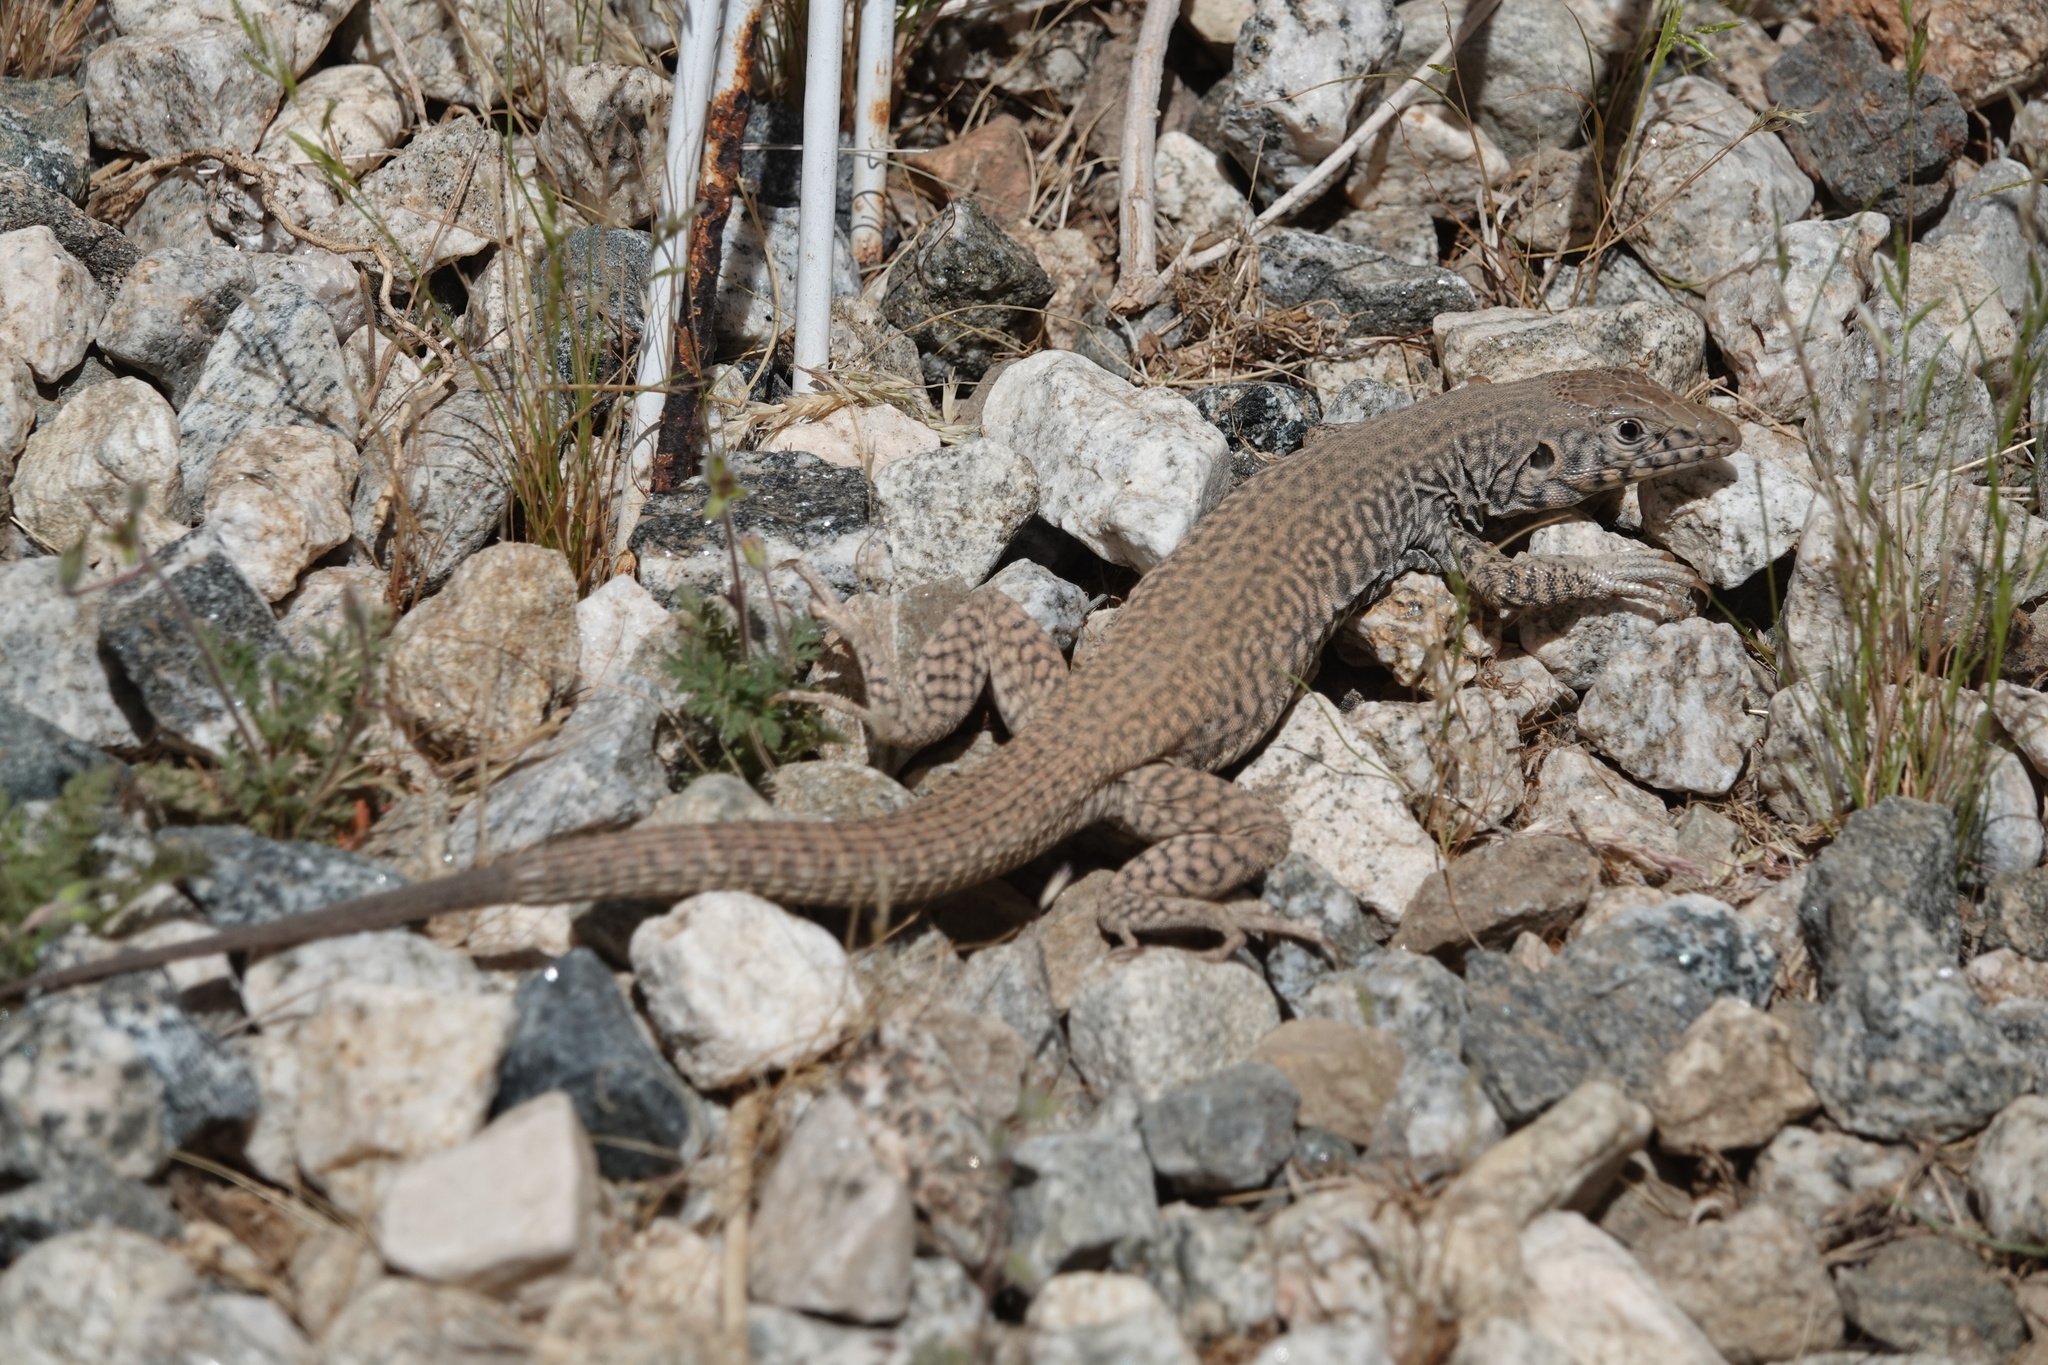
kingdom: Animalia
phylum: Chordata
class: Squamata
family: Teiidae
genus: Aspidoscelis
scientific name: Aspidoscelis tigris
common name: Tiger whiptail
